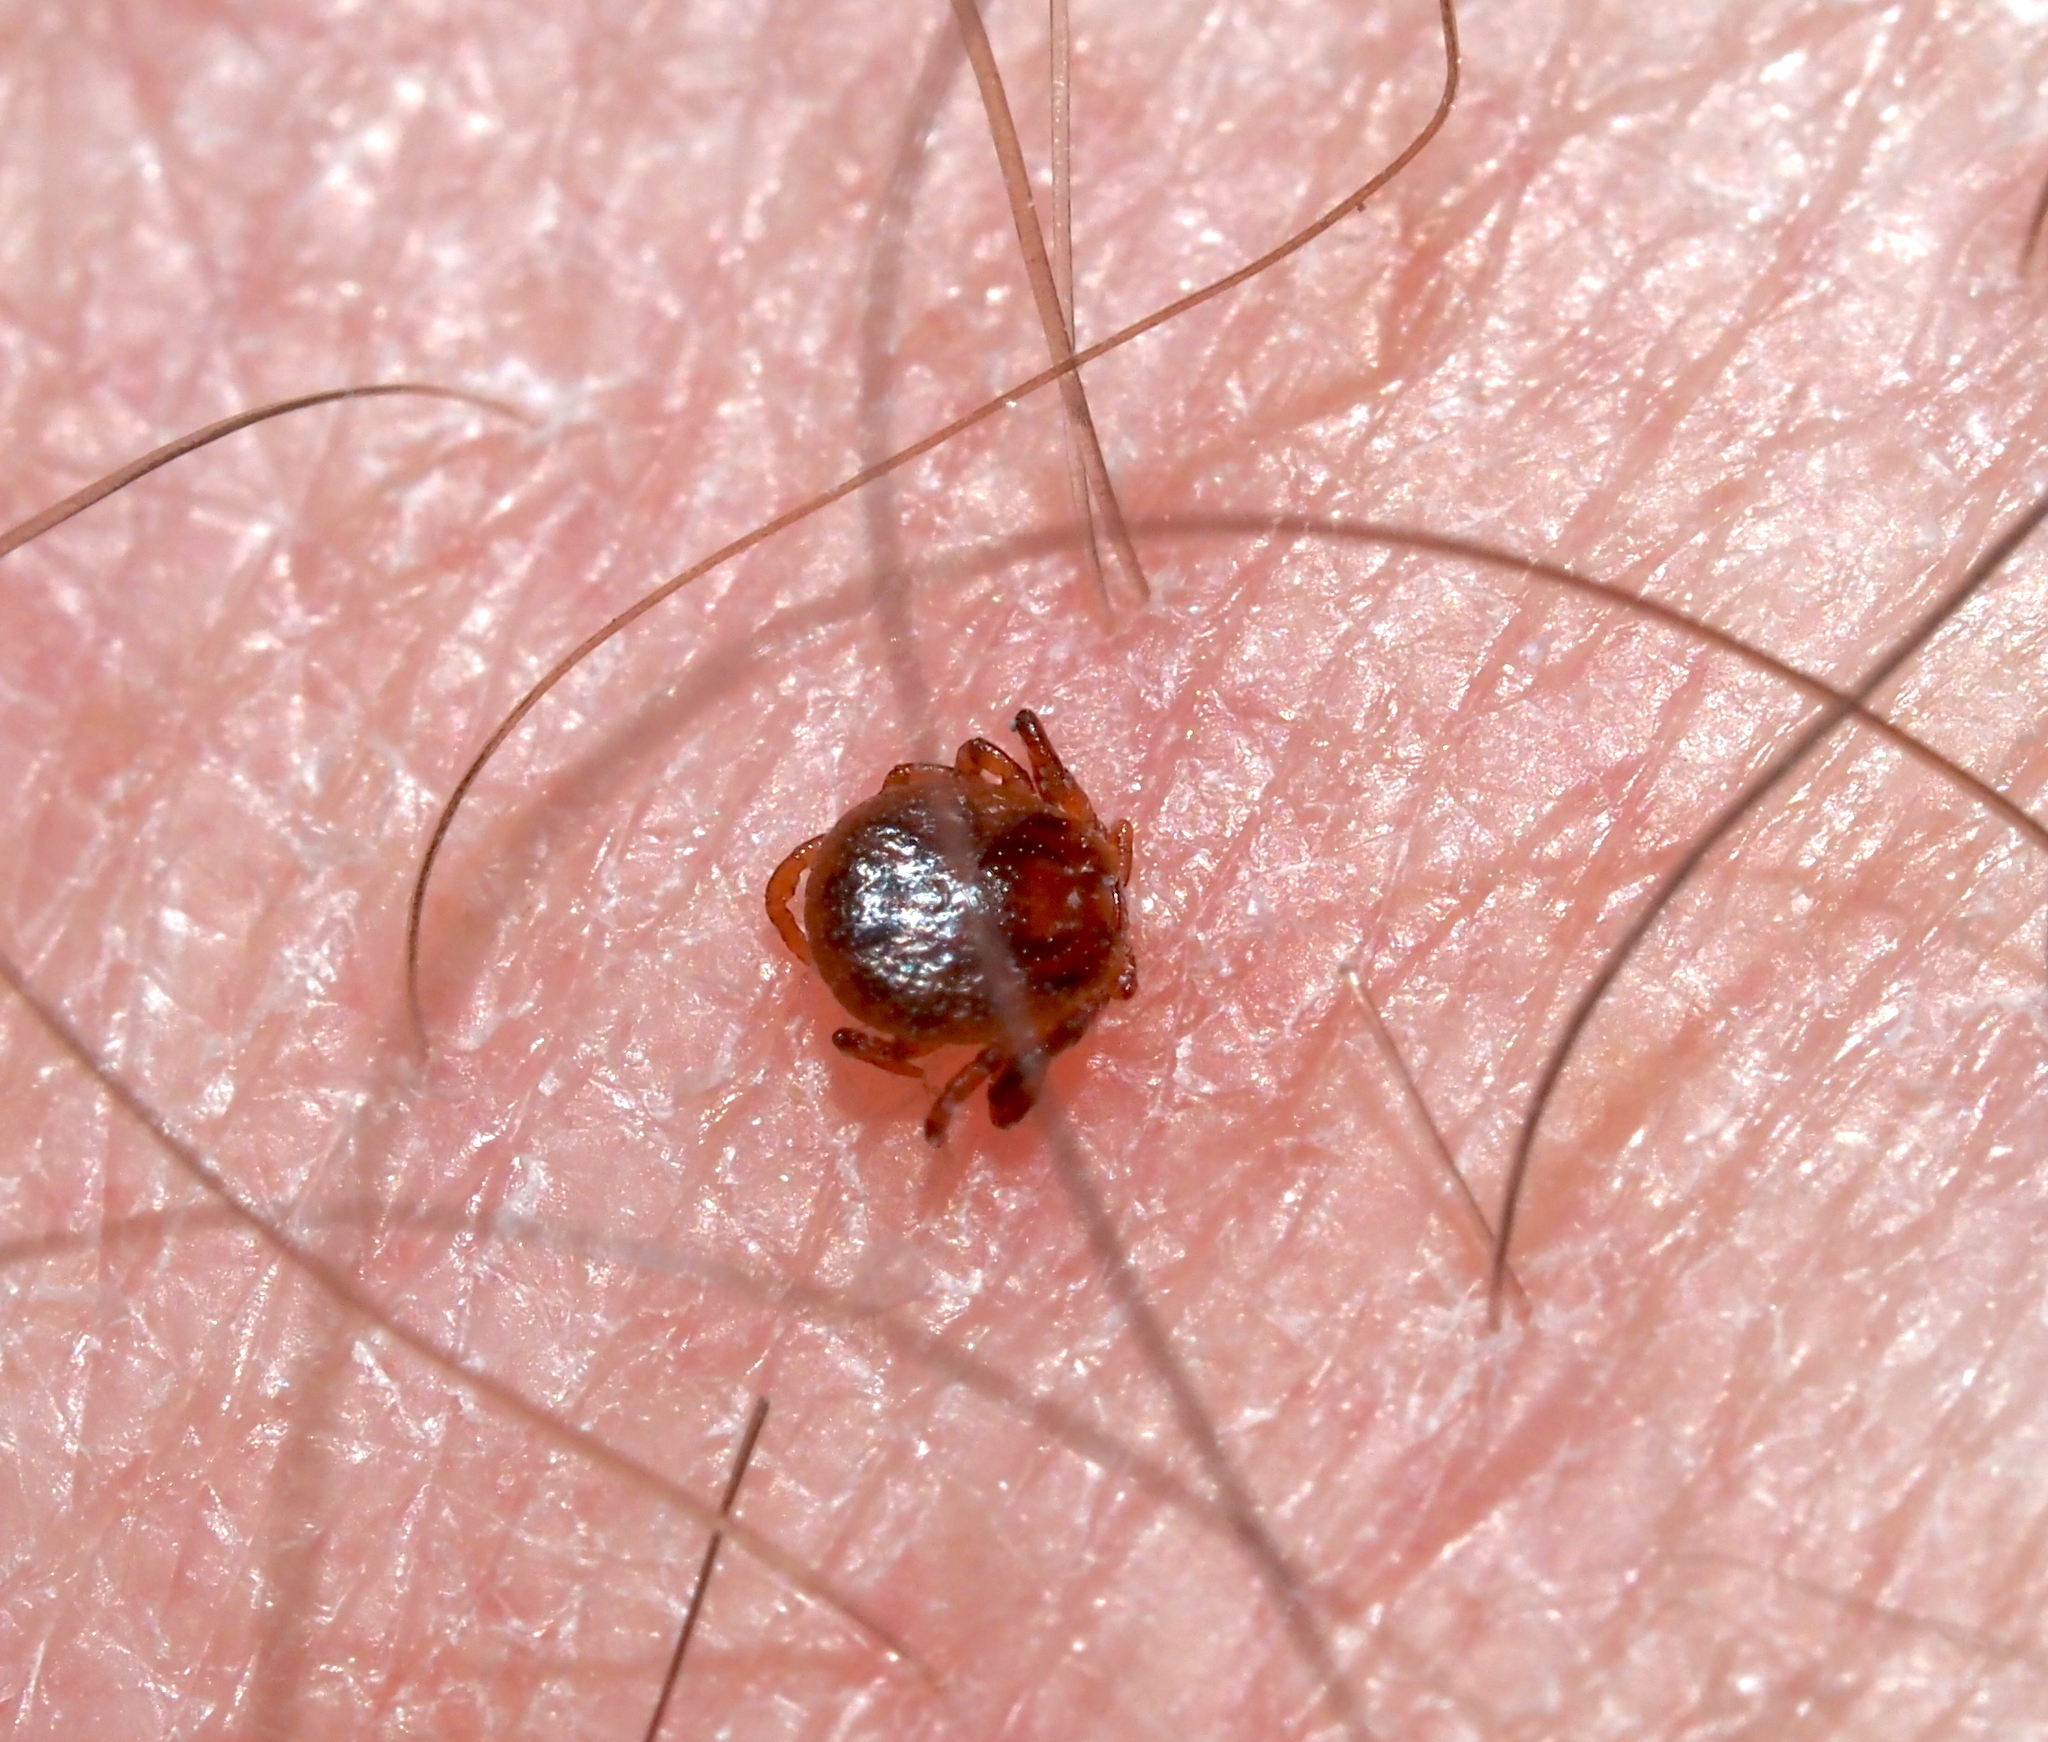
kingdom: Animalia
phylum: Arthropoda
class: Arachnida
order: Ixodida
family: Ixodidae
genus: Amblyomma
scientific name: Amblyomma americanum
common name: Lone star tick
